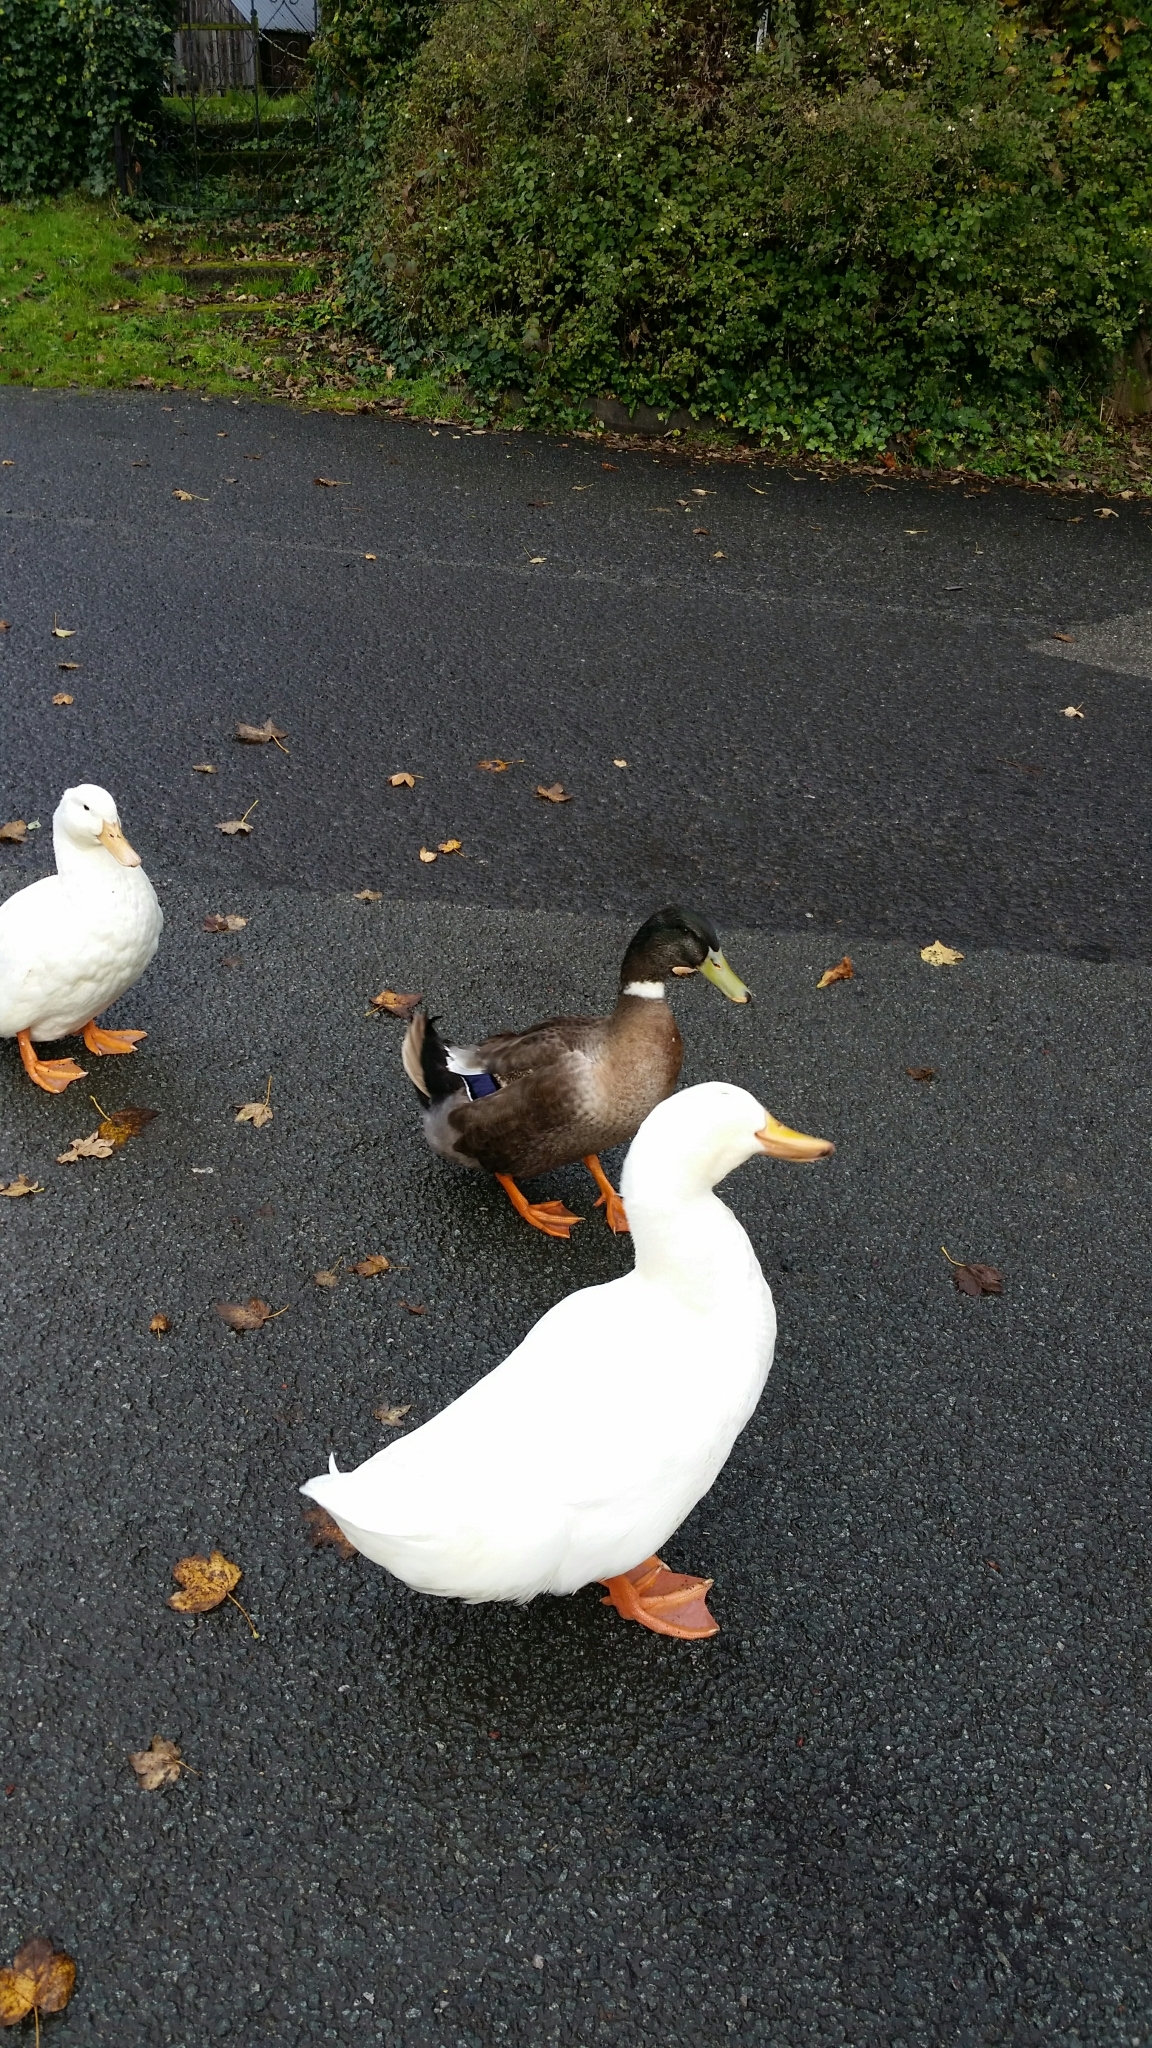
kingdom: Animalia
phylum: Chordata
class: Aves
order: Anseriformes
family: Anatidae
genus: Anas
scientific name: Anas platyrhynchos
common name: Mallard
